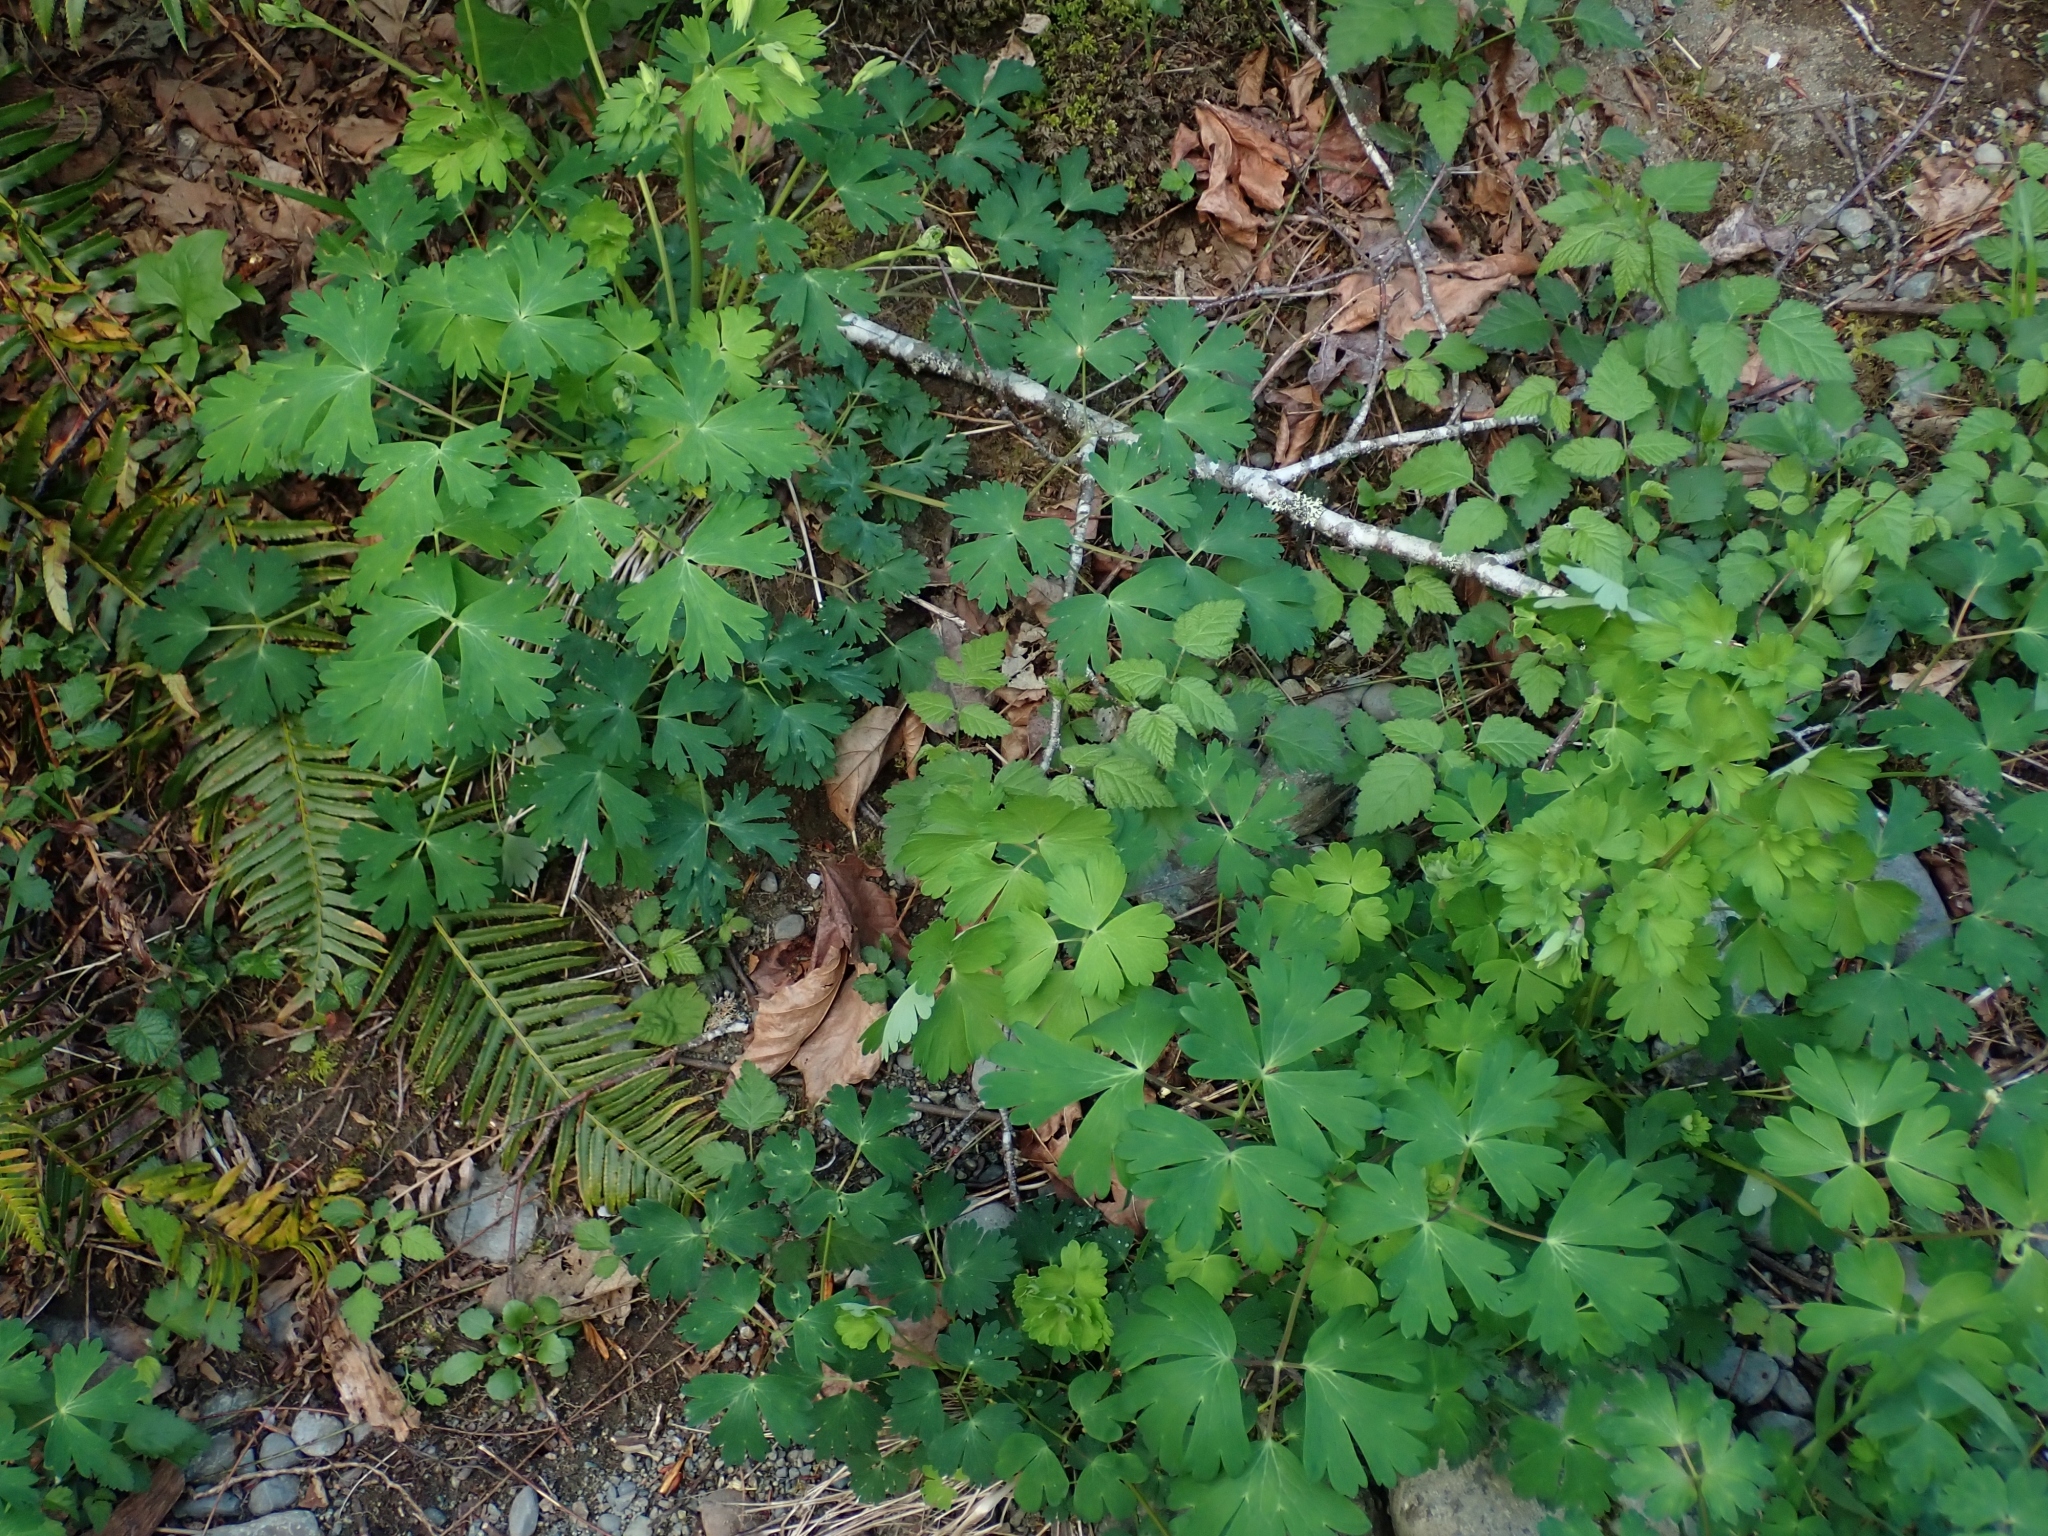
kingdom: Plantae
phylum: Tracheophyta
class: Magnoliopsida
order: Ranunculales
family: Ranunculaceae
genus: Aquilegia
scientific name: Aquilegia formosa
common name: Sitka columbine
